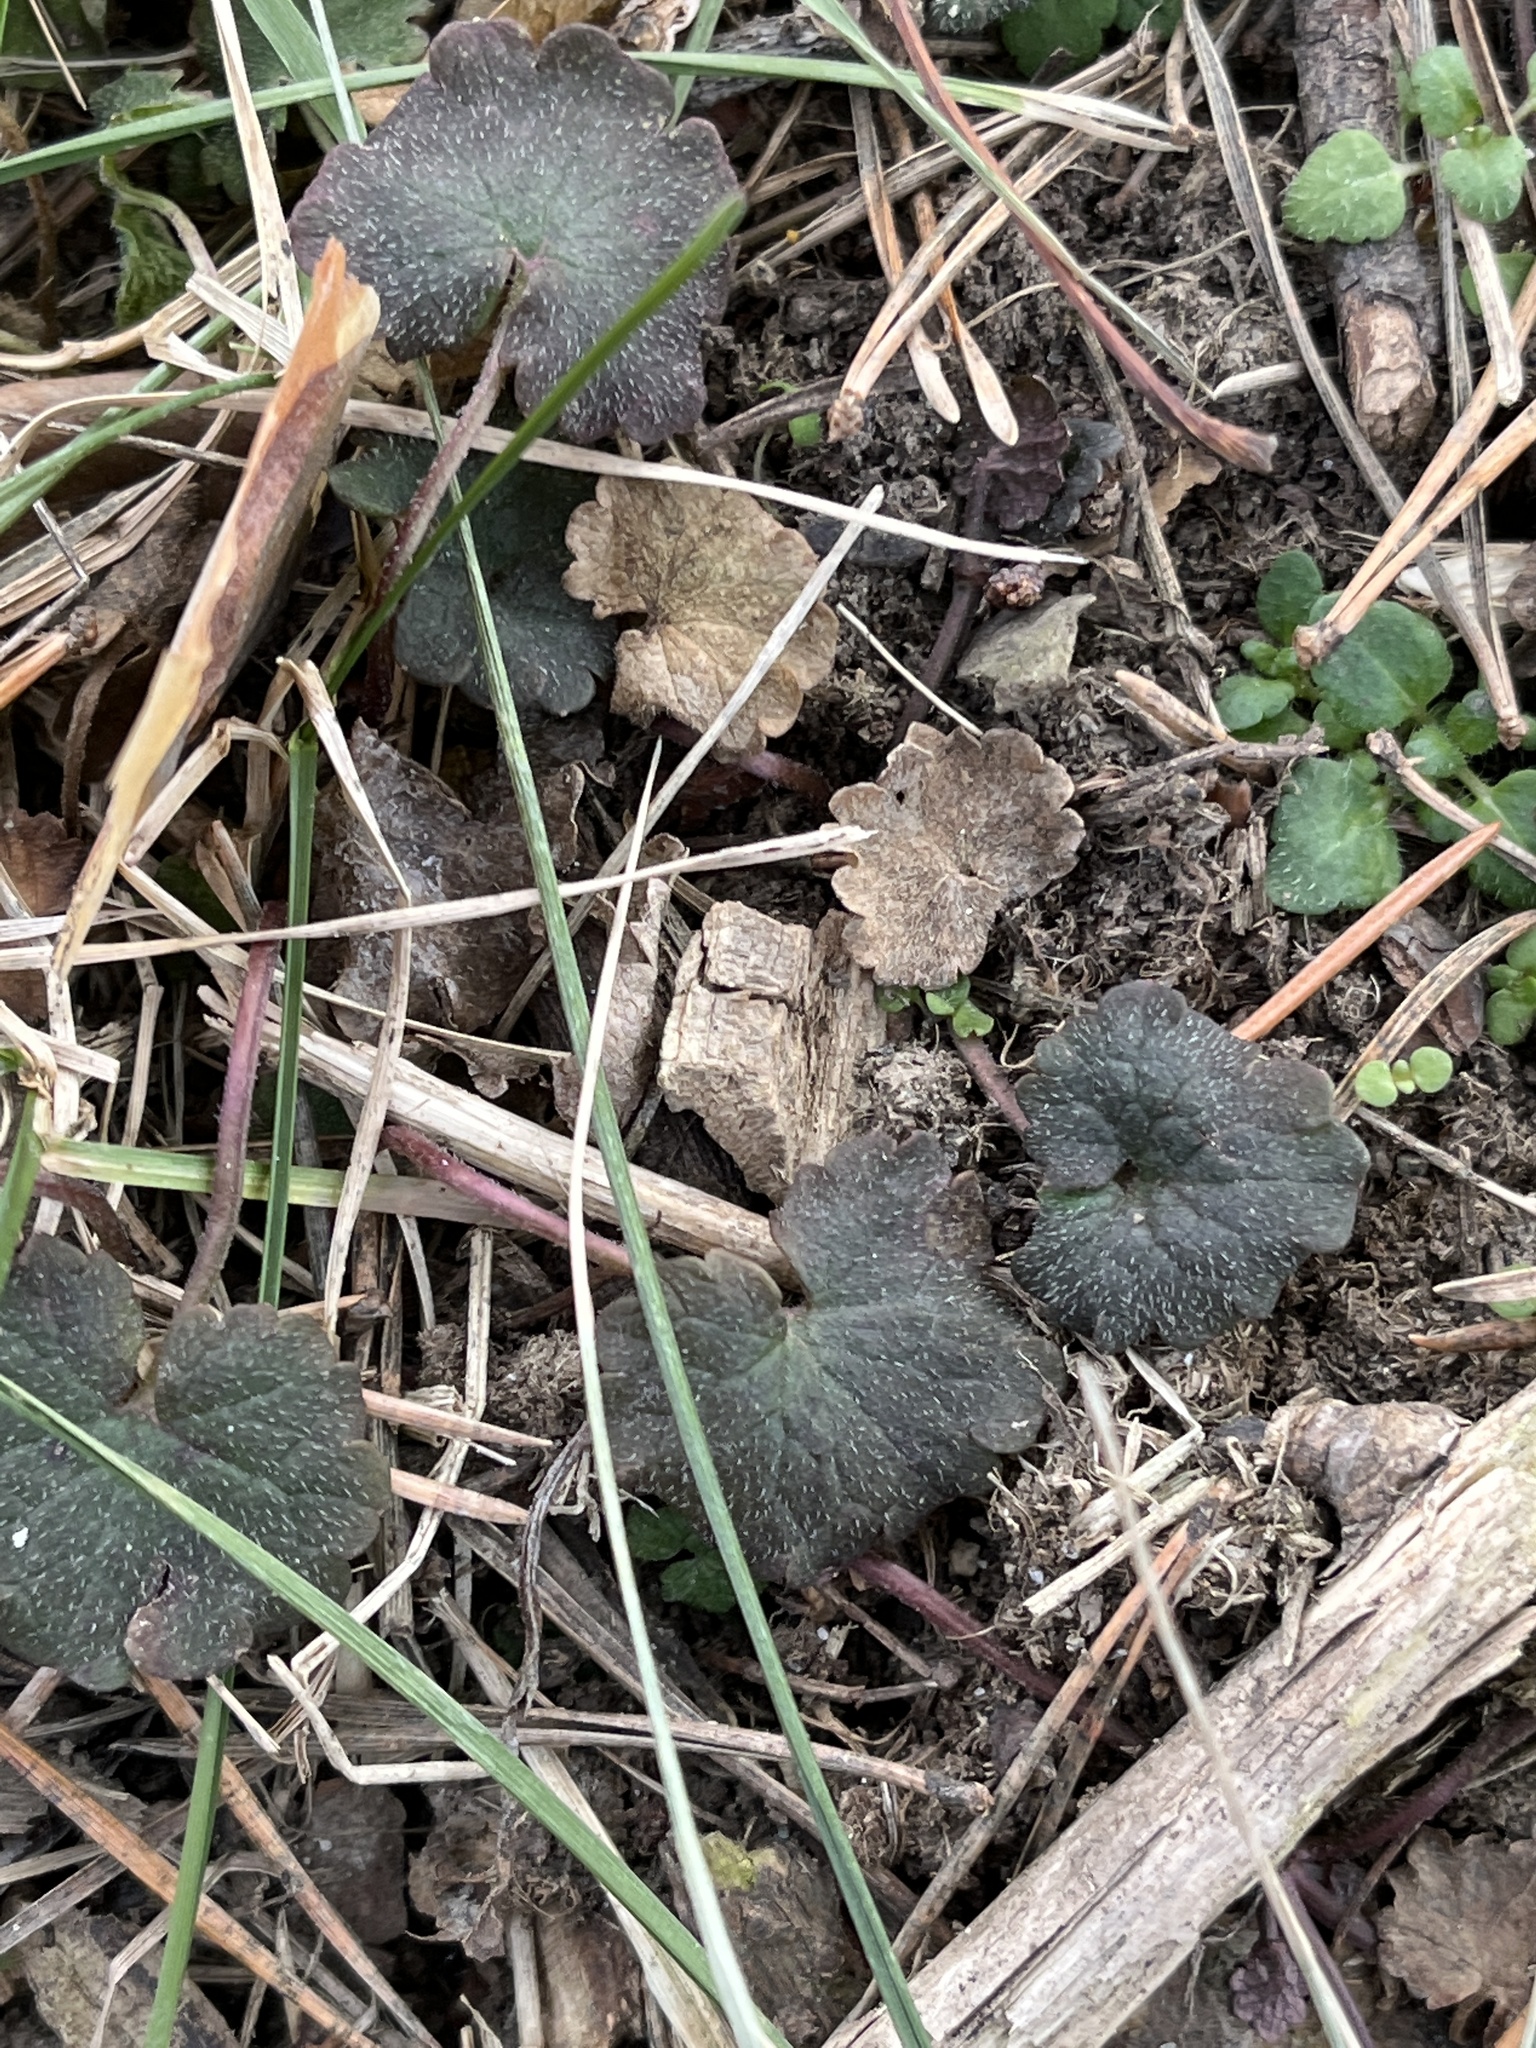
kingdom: Plantae
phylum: Tracheophyta
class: Magnoliopsida
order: Lamiales
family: Lamiaceae
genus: Glechoma
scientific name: Glechoma hederacea
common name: Ground ivy
